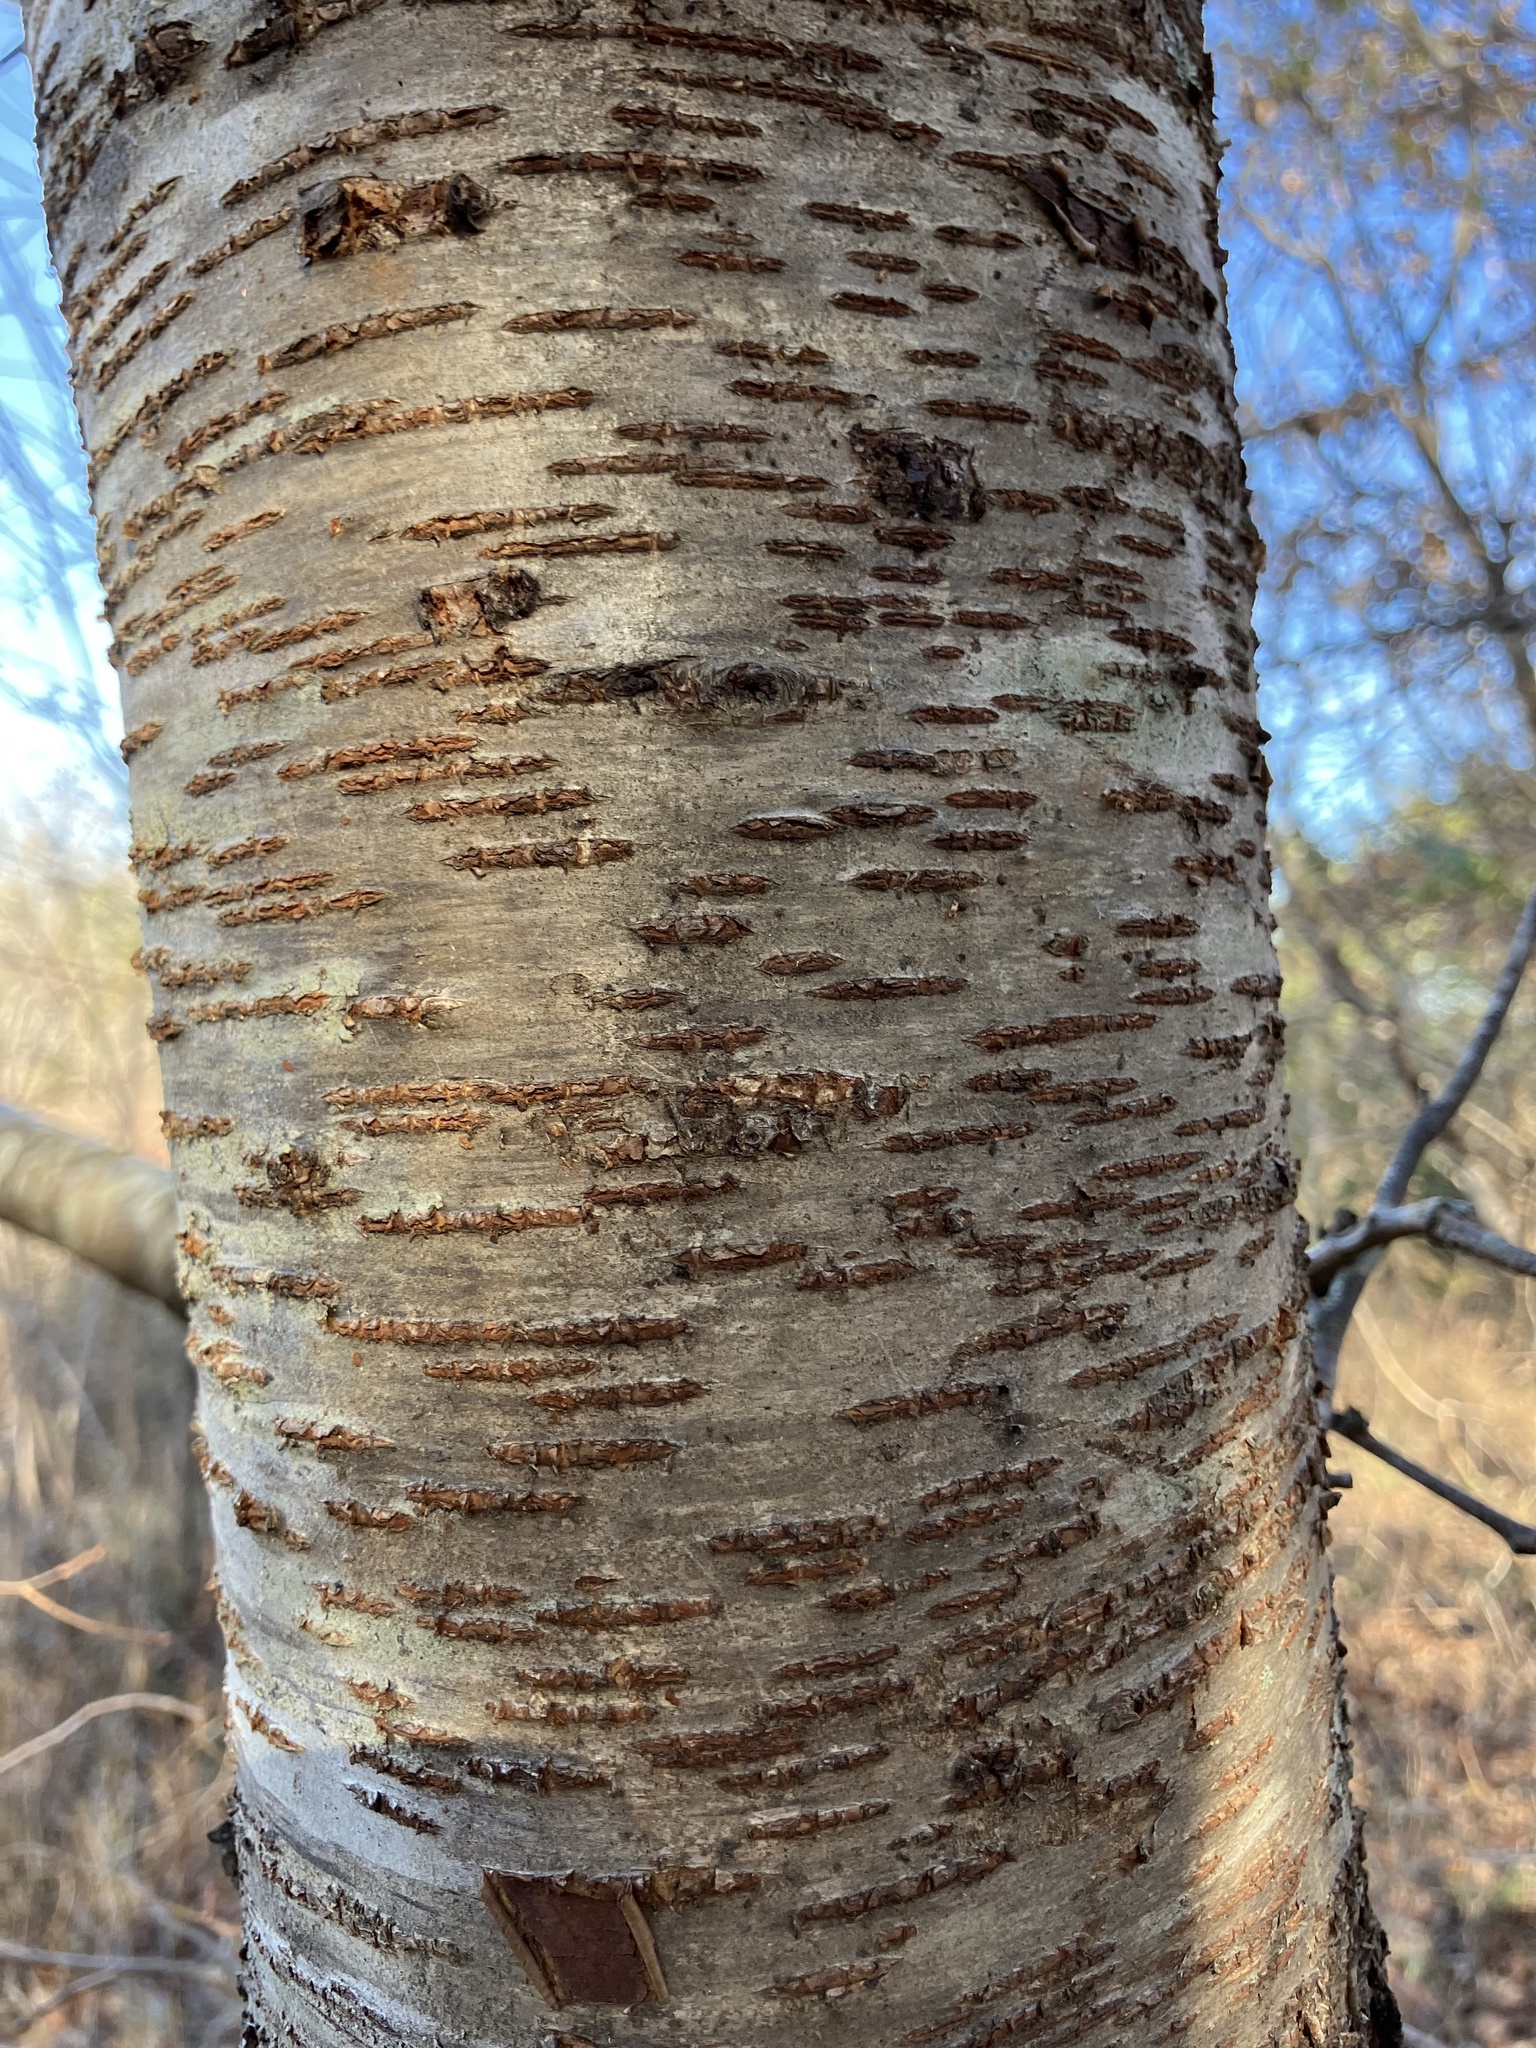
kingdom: Plantae
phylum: Tracheophyta
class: Magnoliopsida
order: Rosales
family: Rosaceae
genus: Prunus
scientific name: Prunus serotina
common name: Black cherry
